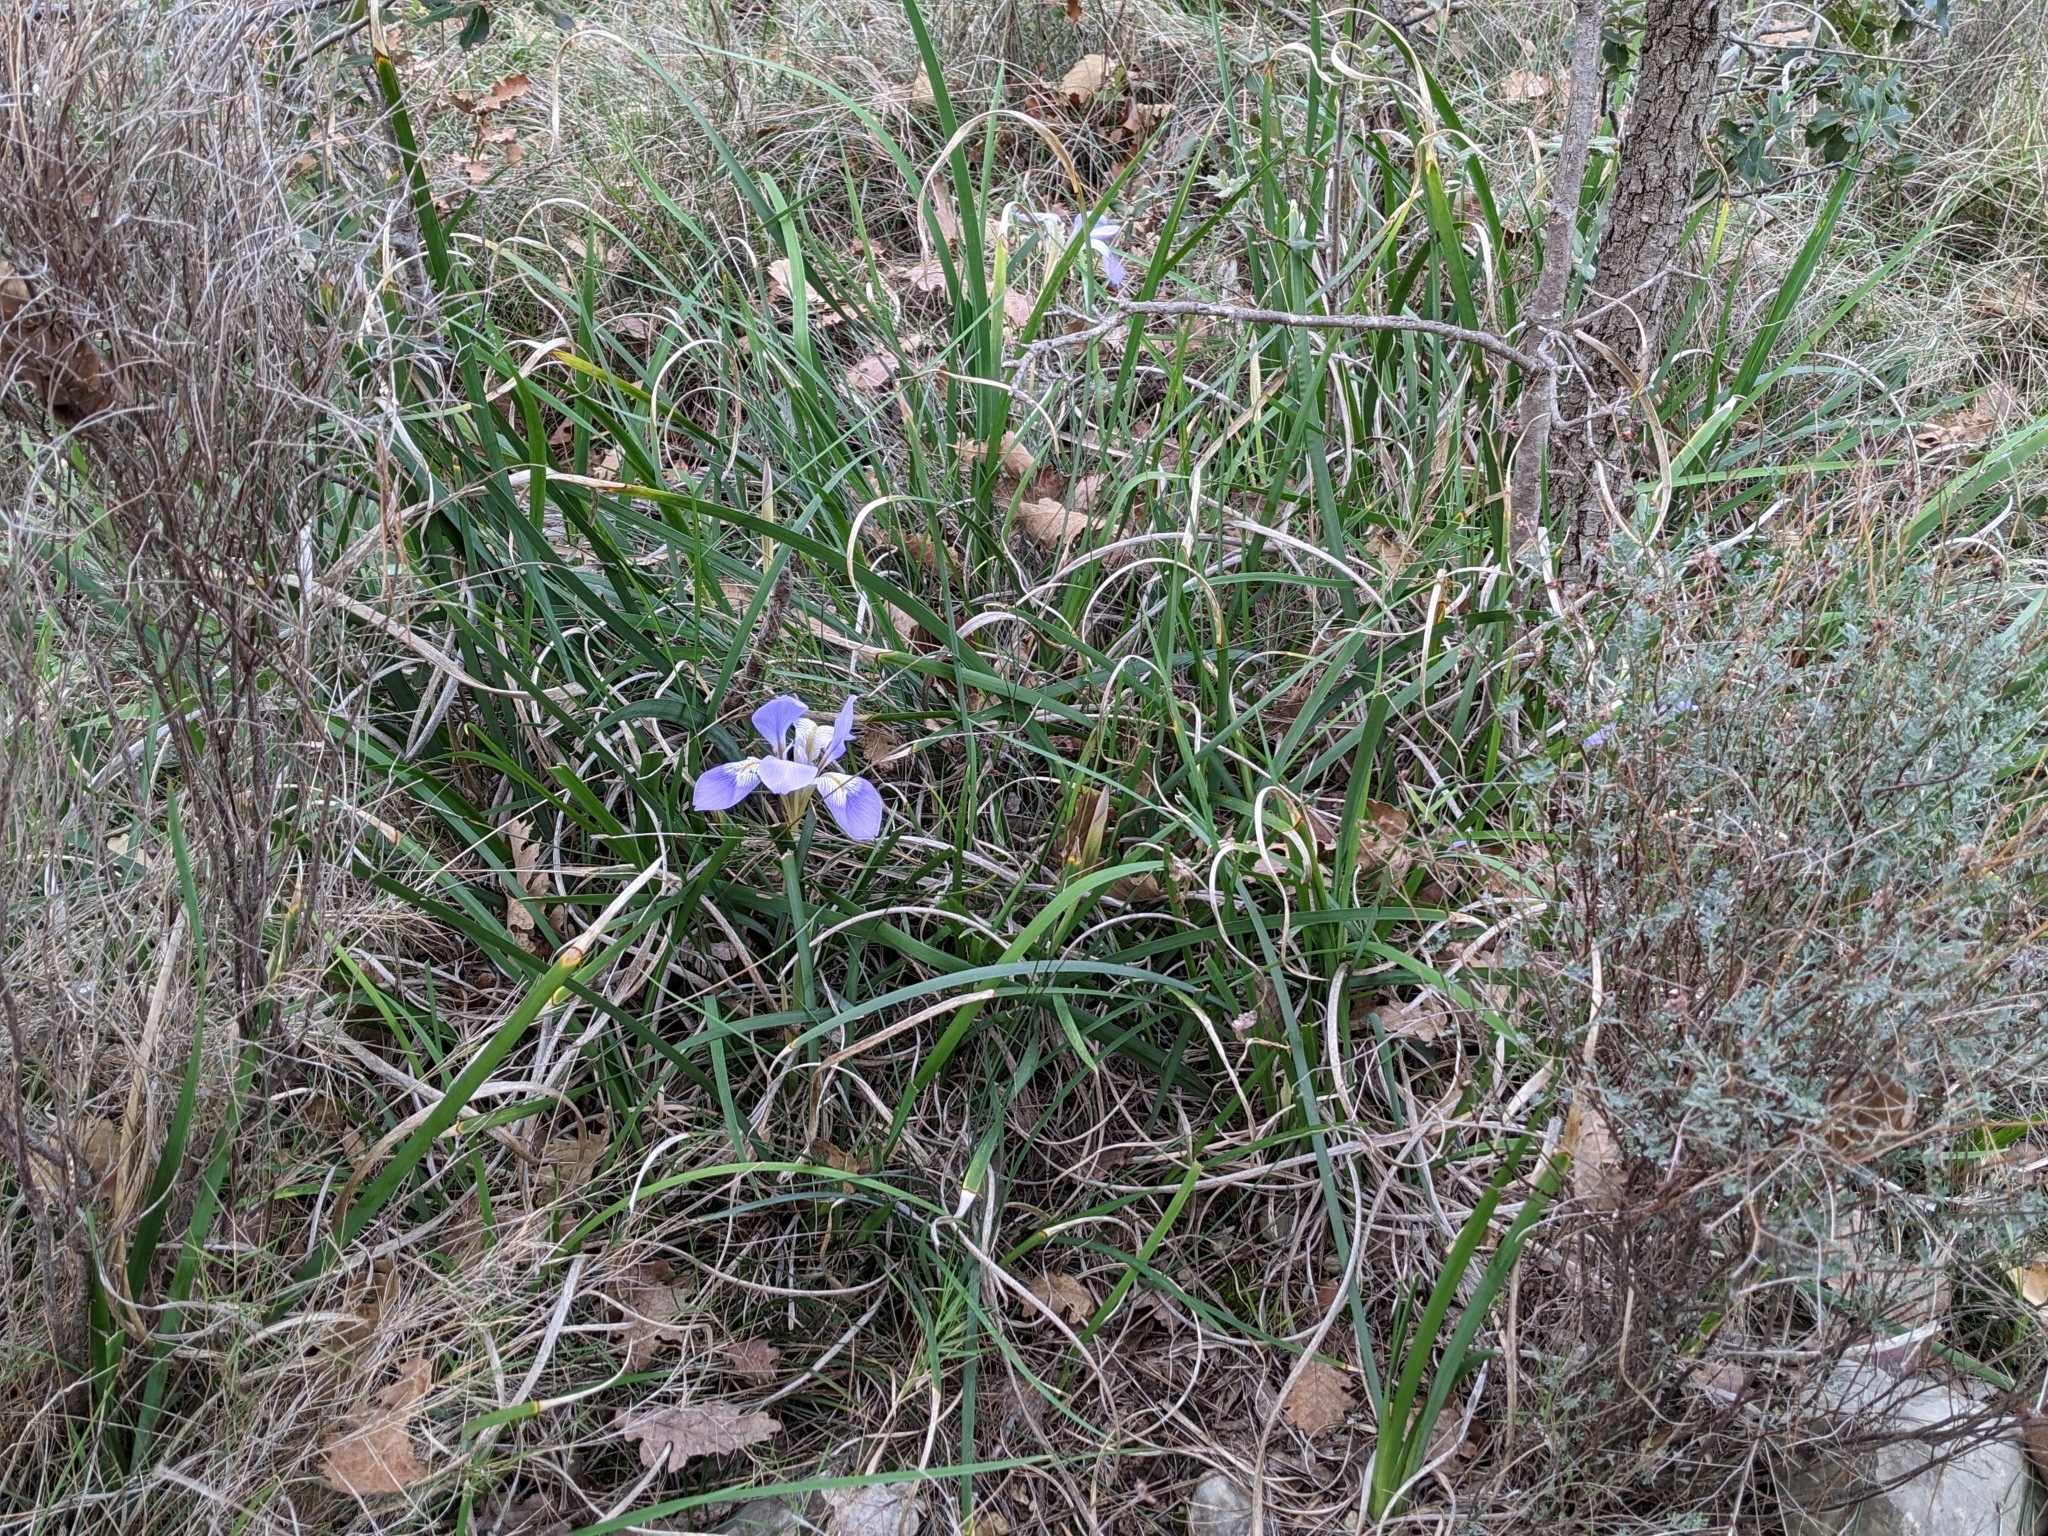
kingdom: Plantae
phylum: Tracheophyta
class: Liliopsida
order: Asparagales
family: Iridaceae
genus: Iris
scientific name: Iris unguicularis
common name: Algerian iris
